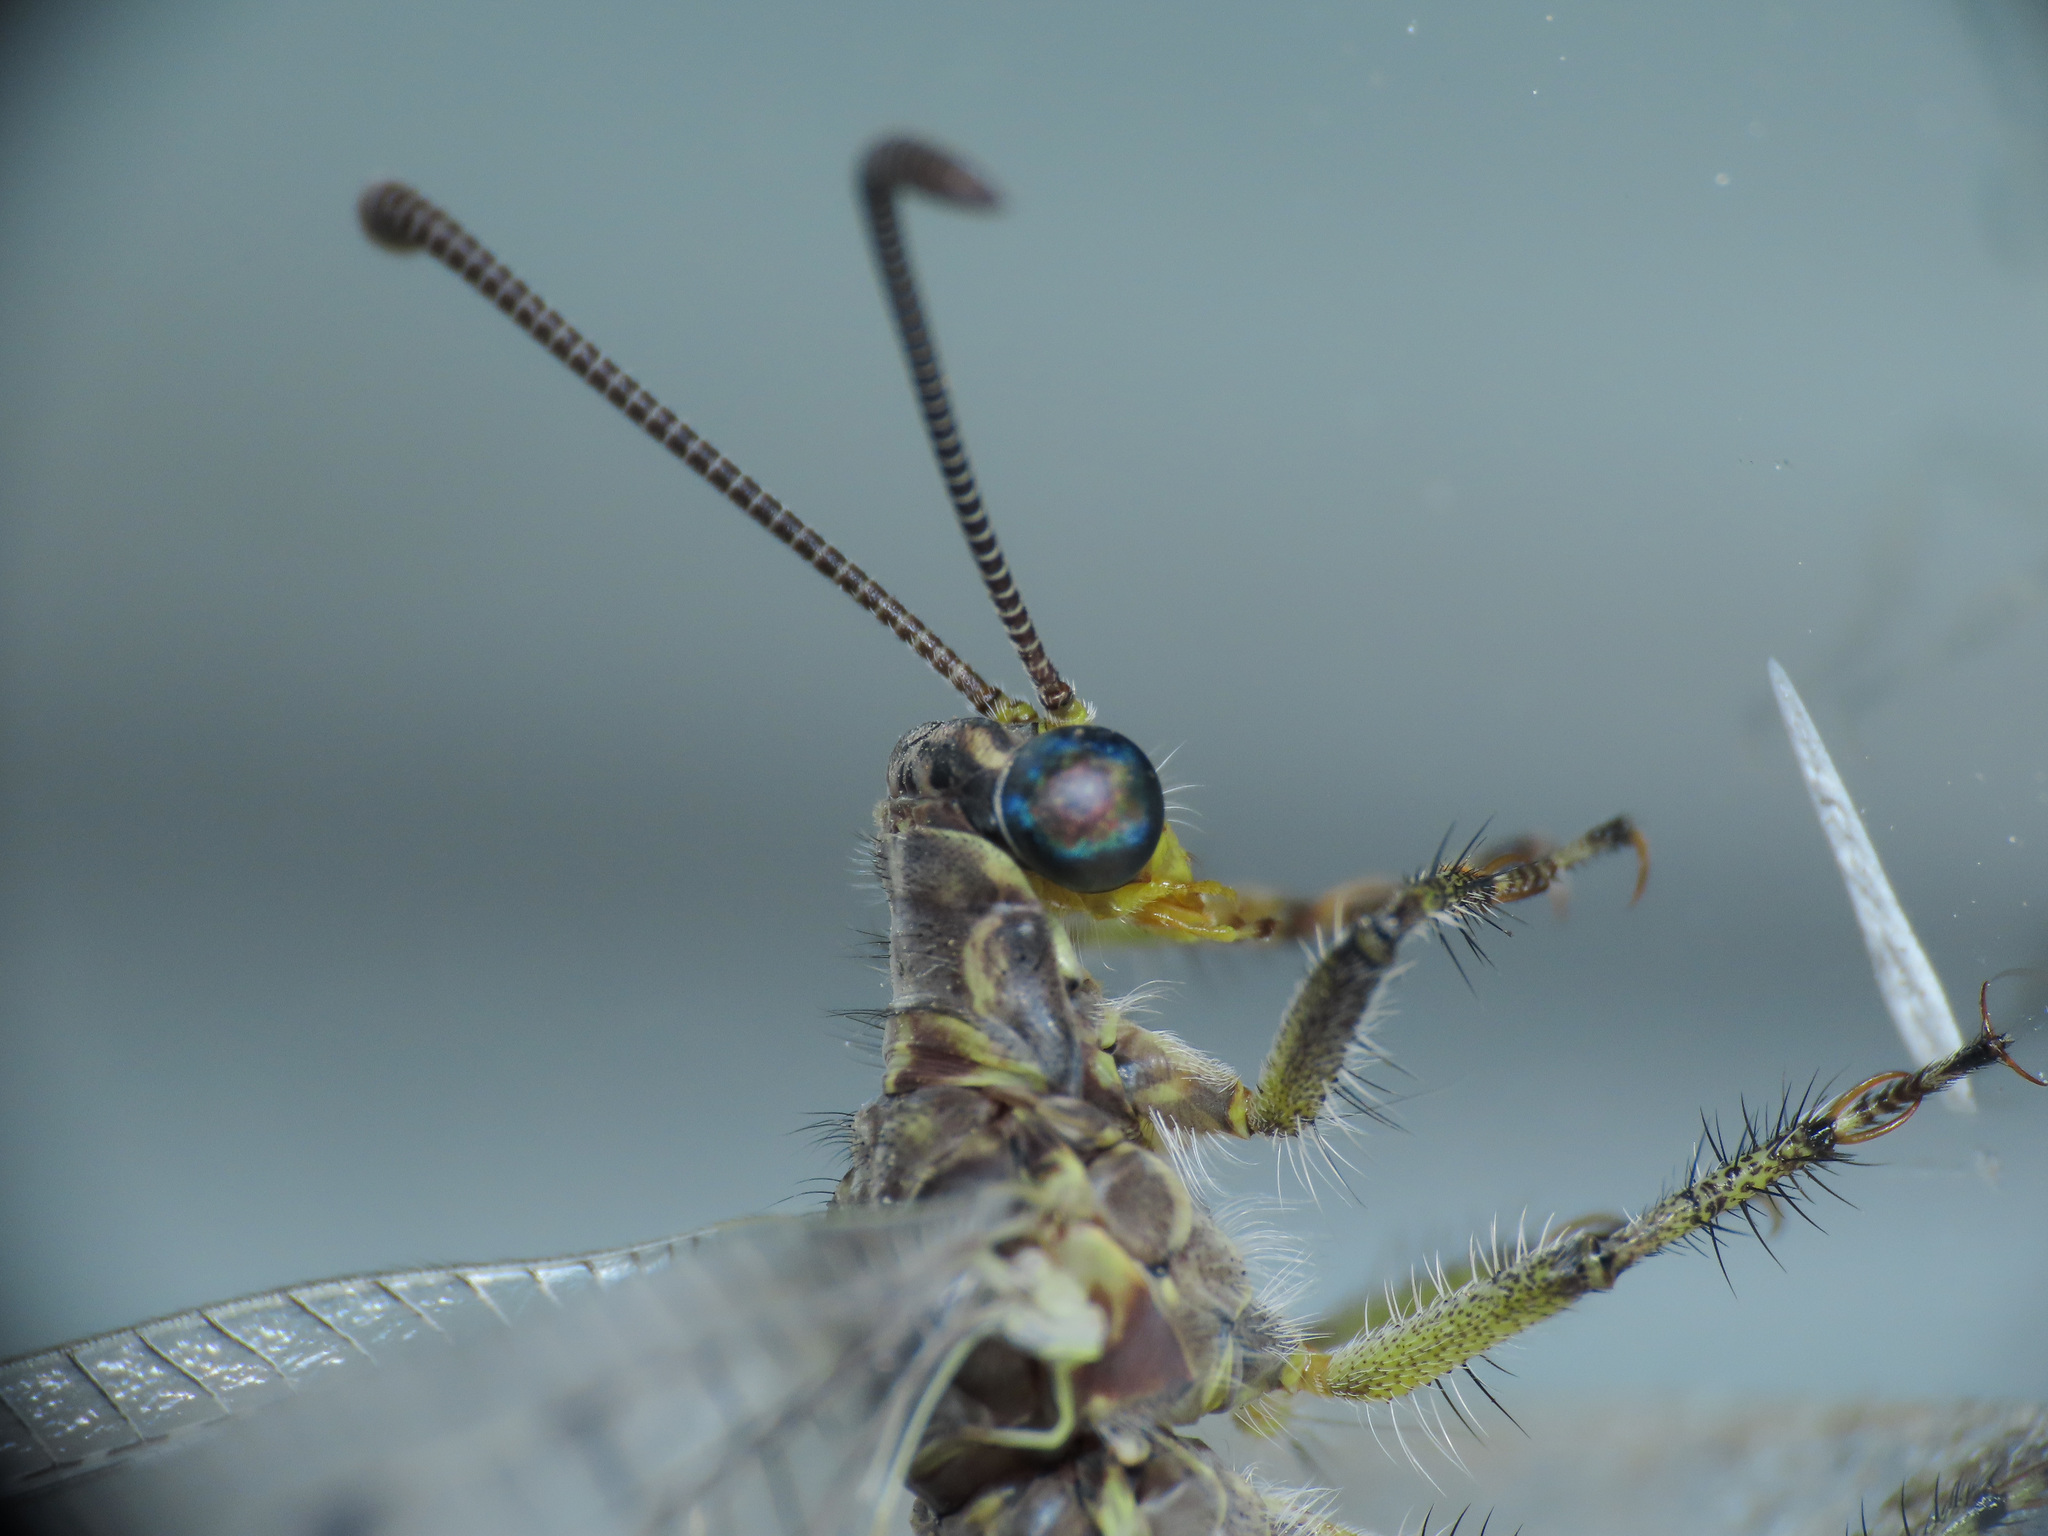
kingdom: Animalia
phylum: Arthropoda
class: Insecta
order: Neuroptera
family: Myrmeleontidae
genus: Distoleon
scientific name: Distoleon tetragrammicus
